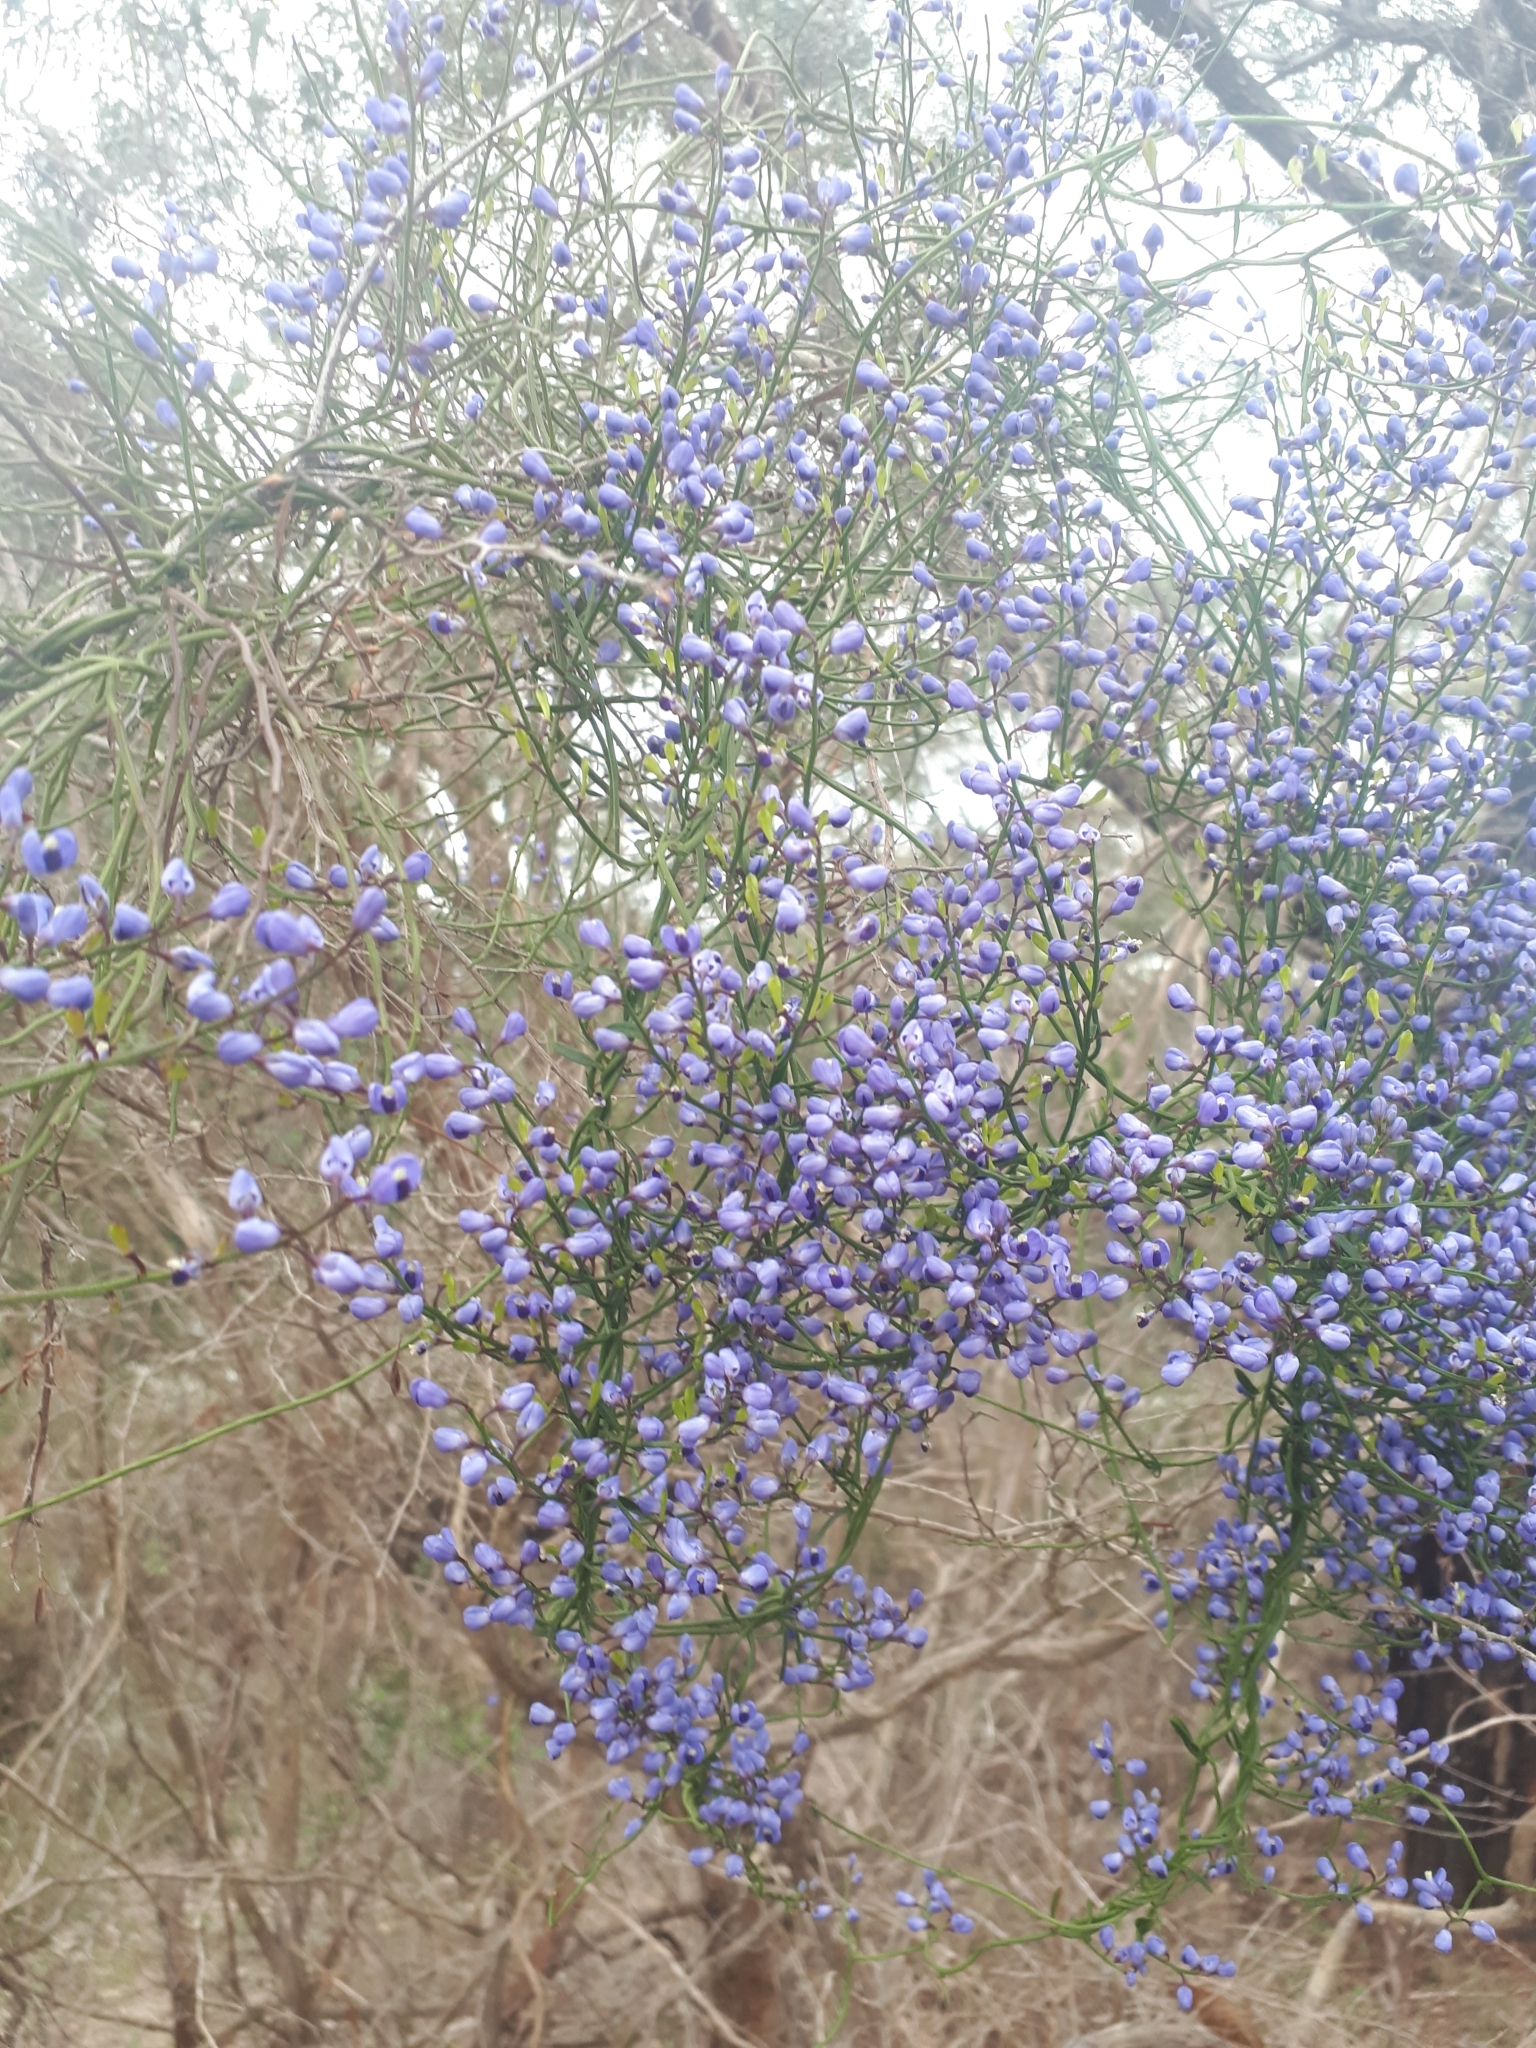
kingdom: Plantae
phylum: Tracheophyta
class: Magnoliopsida
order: Fabales
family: Polygalaceae
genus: Comesperma
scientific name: Comesperma volubile
